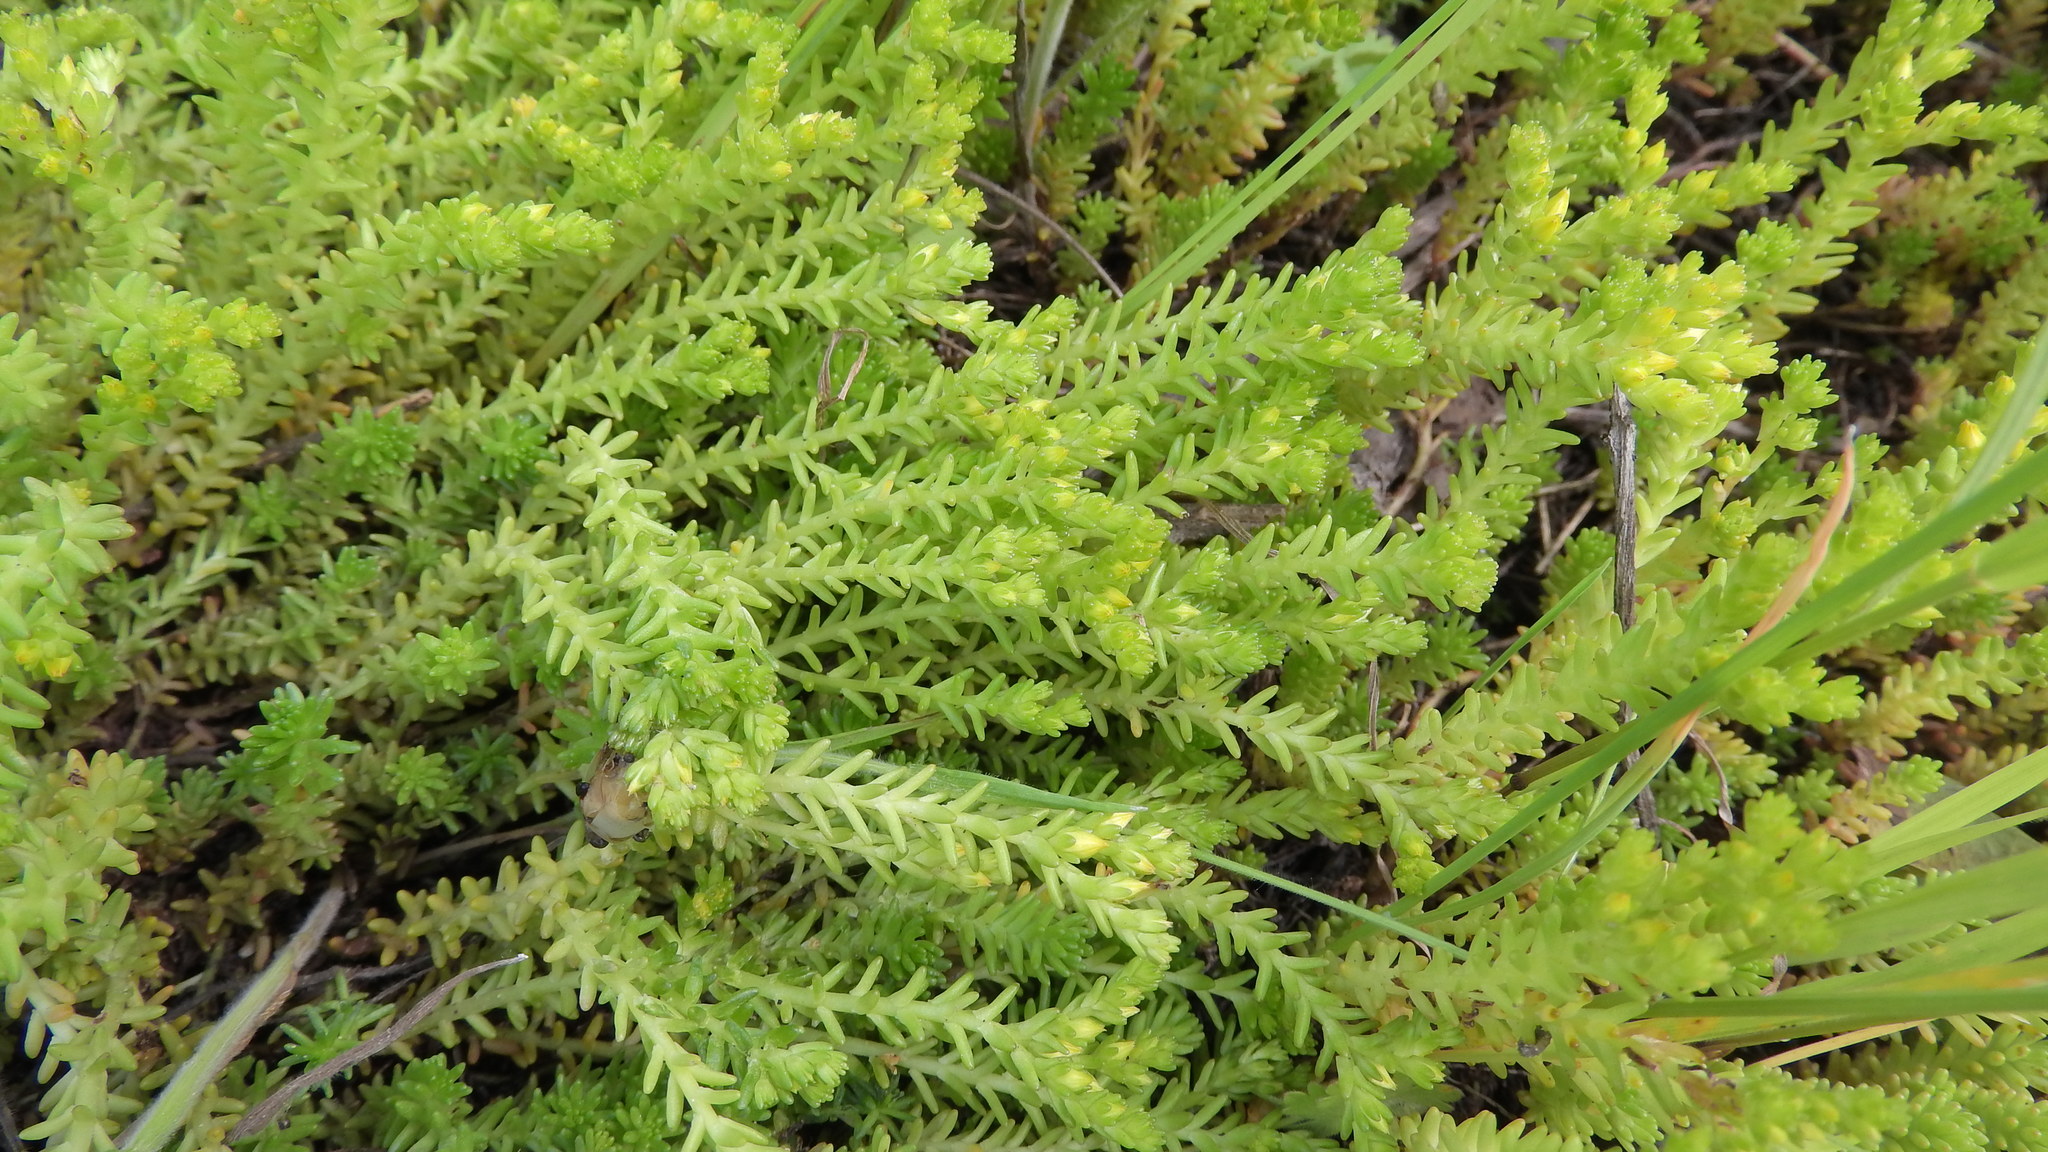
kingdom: Plantae
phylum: Tracheophyta
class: Magnoliopsida
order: Saxifragales
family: Crassulaceae
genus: Sedum
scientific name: Sedum sexangulare
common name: Tasteless stonecrop
